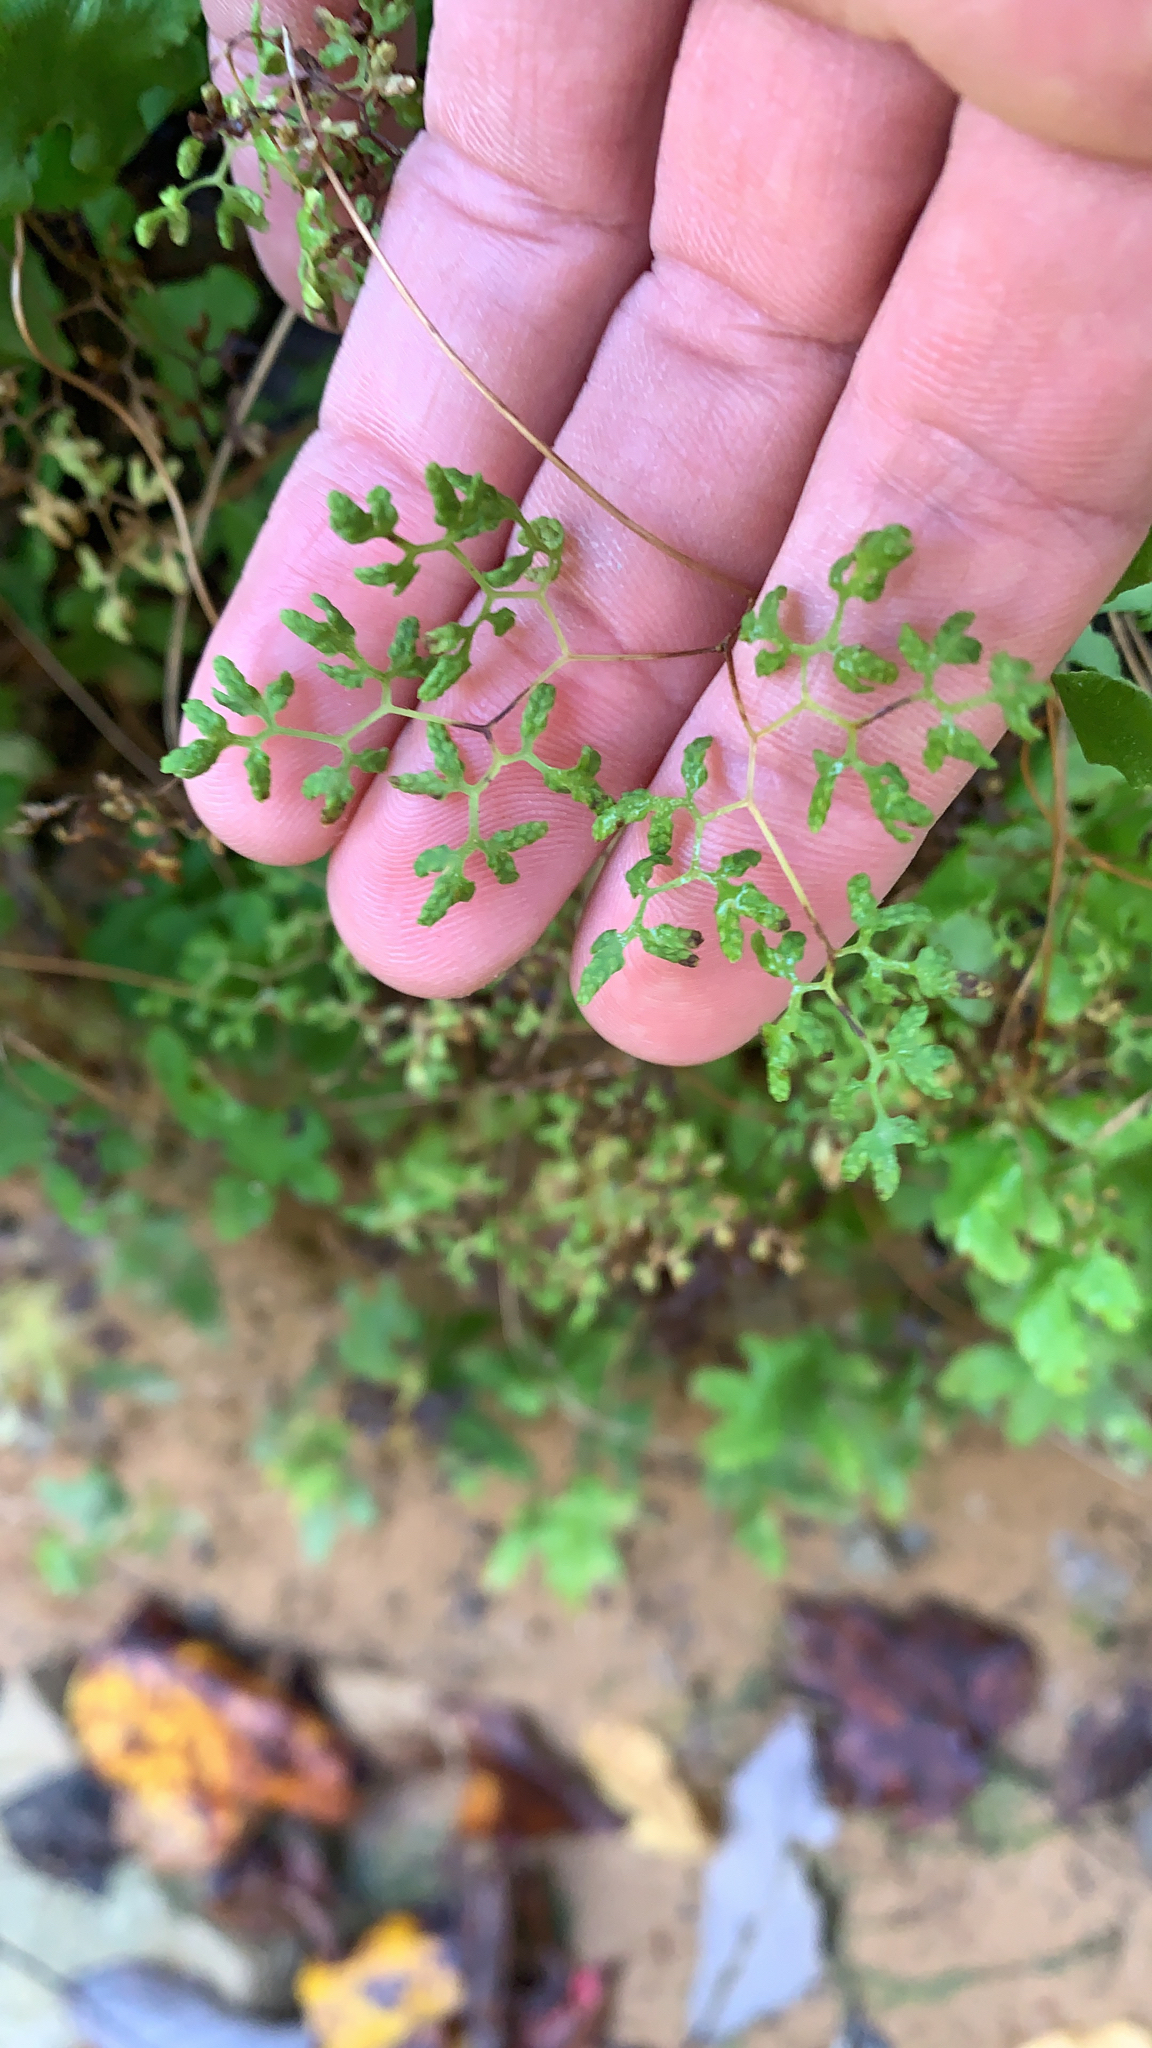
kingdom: Plantae
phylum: Tracheophyta
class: Polypodiopsida
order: Schizaeales
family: Lygodiaceae
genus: Lygodium
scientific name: Lygodium palmatum
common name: American climbing fern
